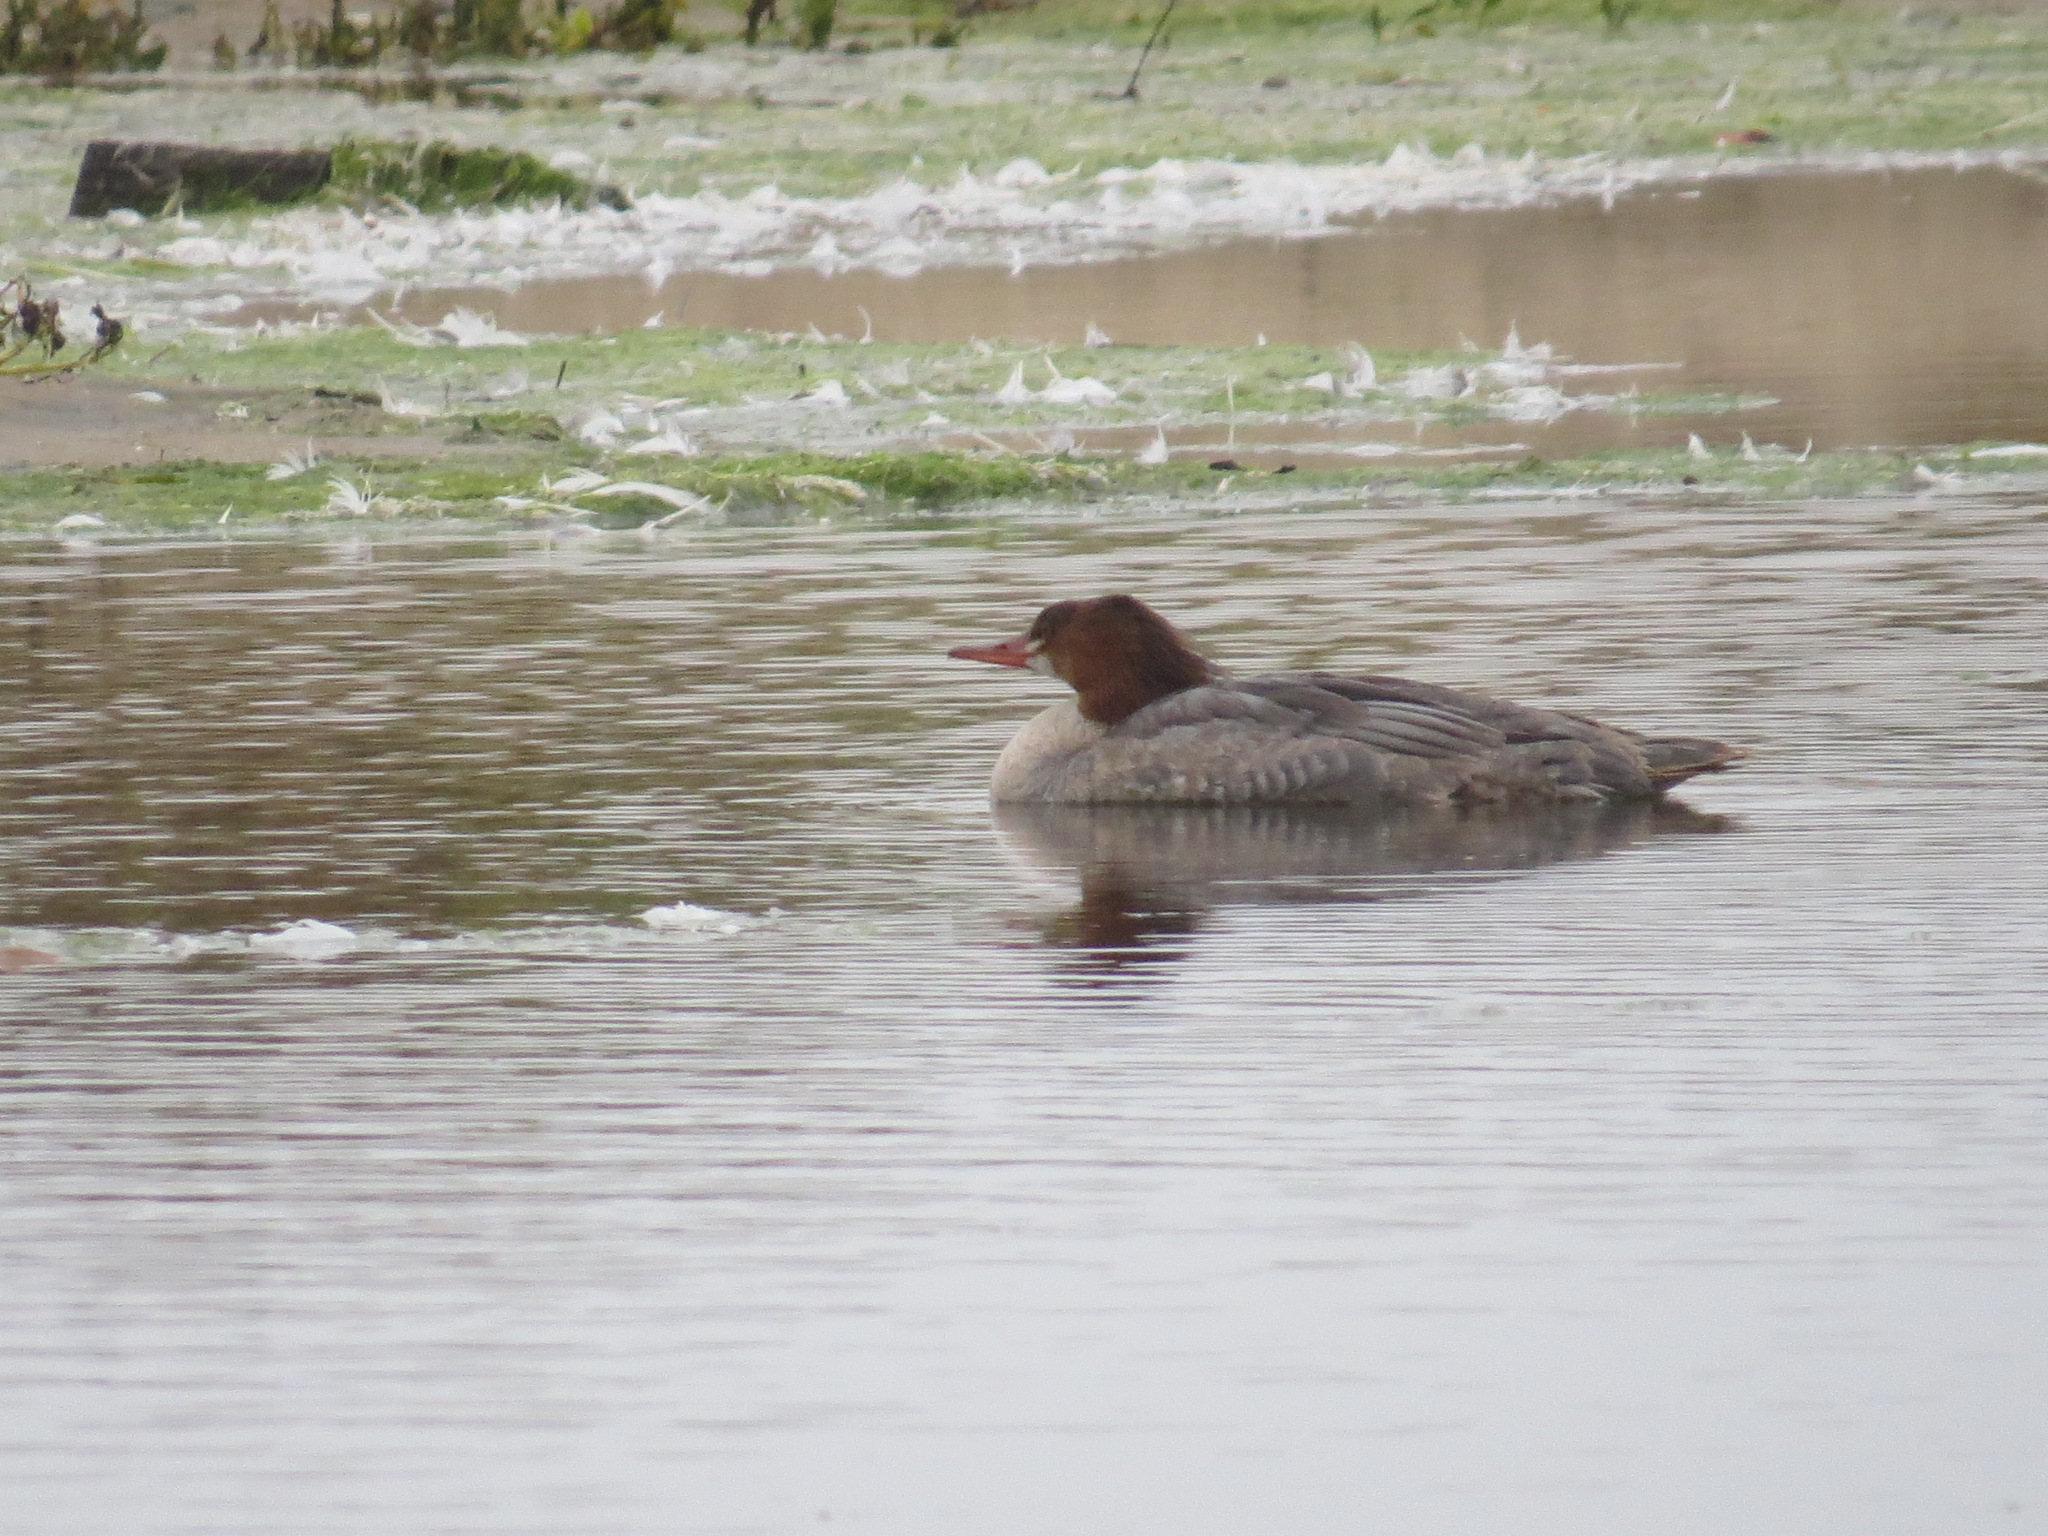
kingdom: Animalia
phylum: Chordata
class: Aves
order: Anseriformes
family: Anatidae
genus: Mergus
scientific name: Mergus merganser
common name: Common merganser
